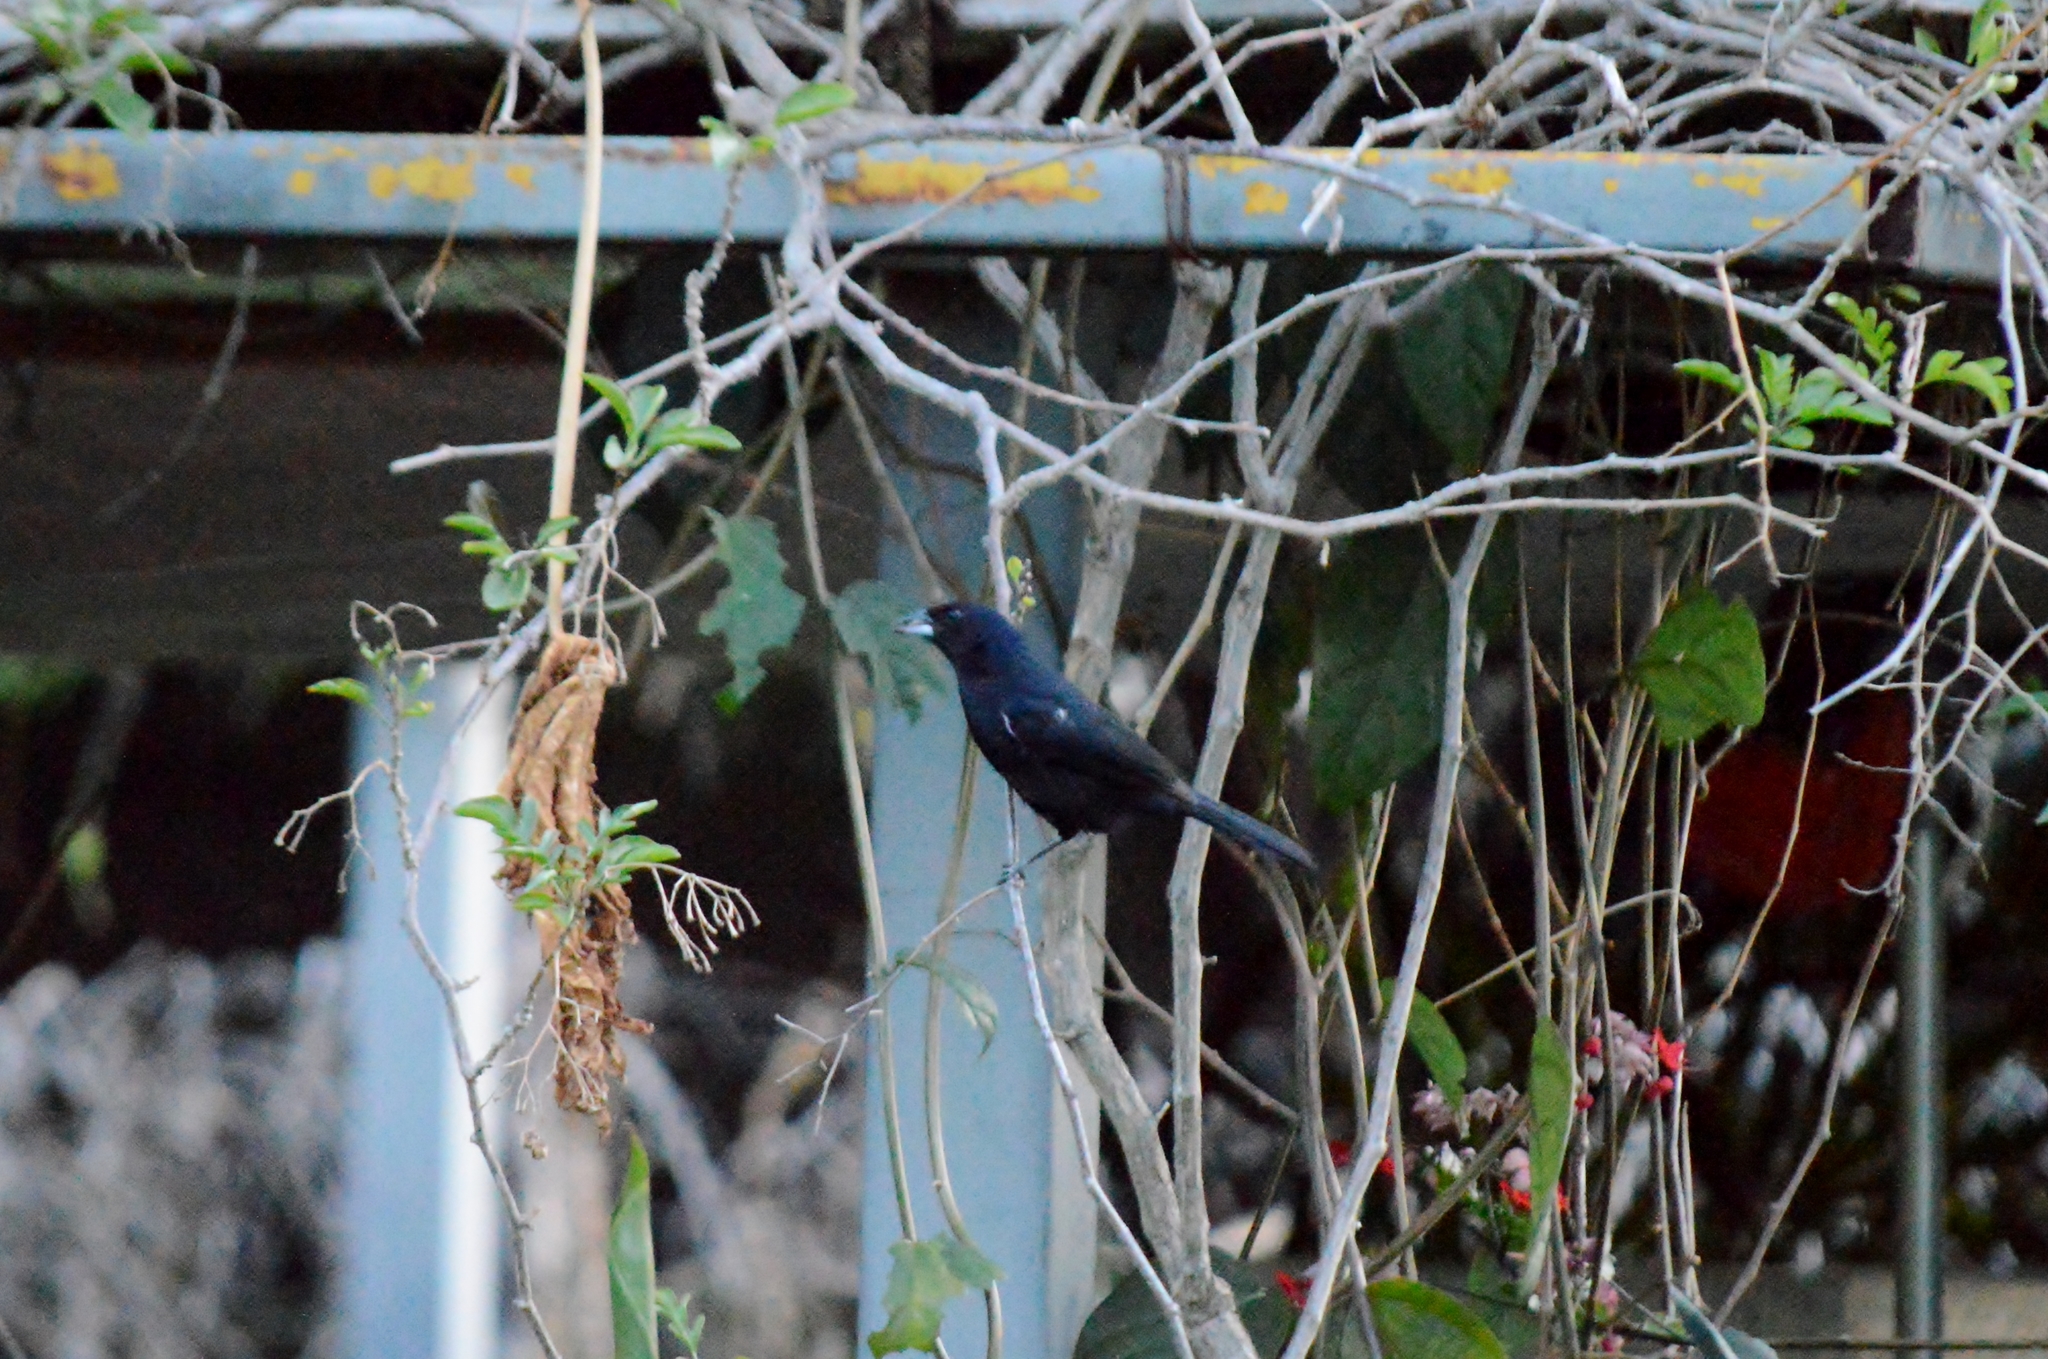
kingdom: Animalia
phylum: Chordata
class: Aves
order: Passeriformes
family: Thraupidae
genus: Tachyphonus
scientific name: Tachyphonus rufus
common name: White-lined tanager
